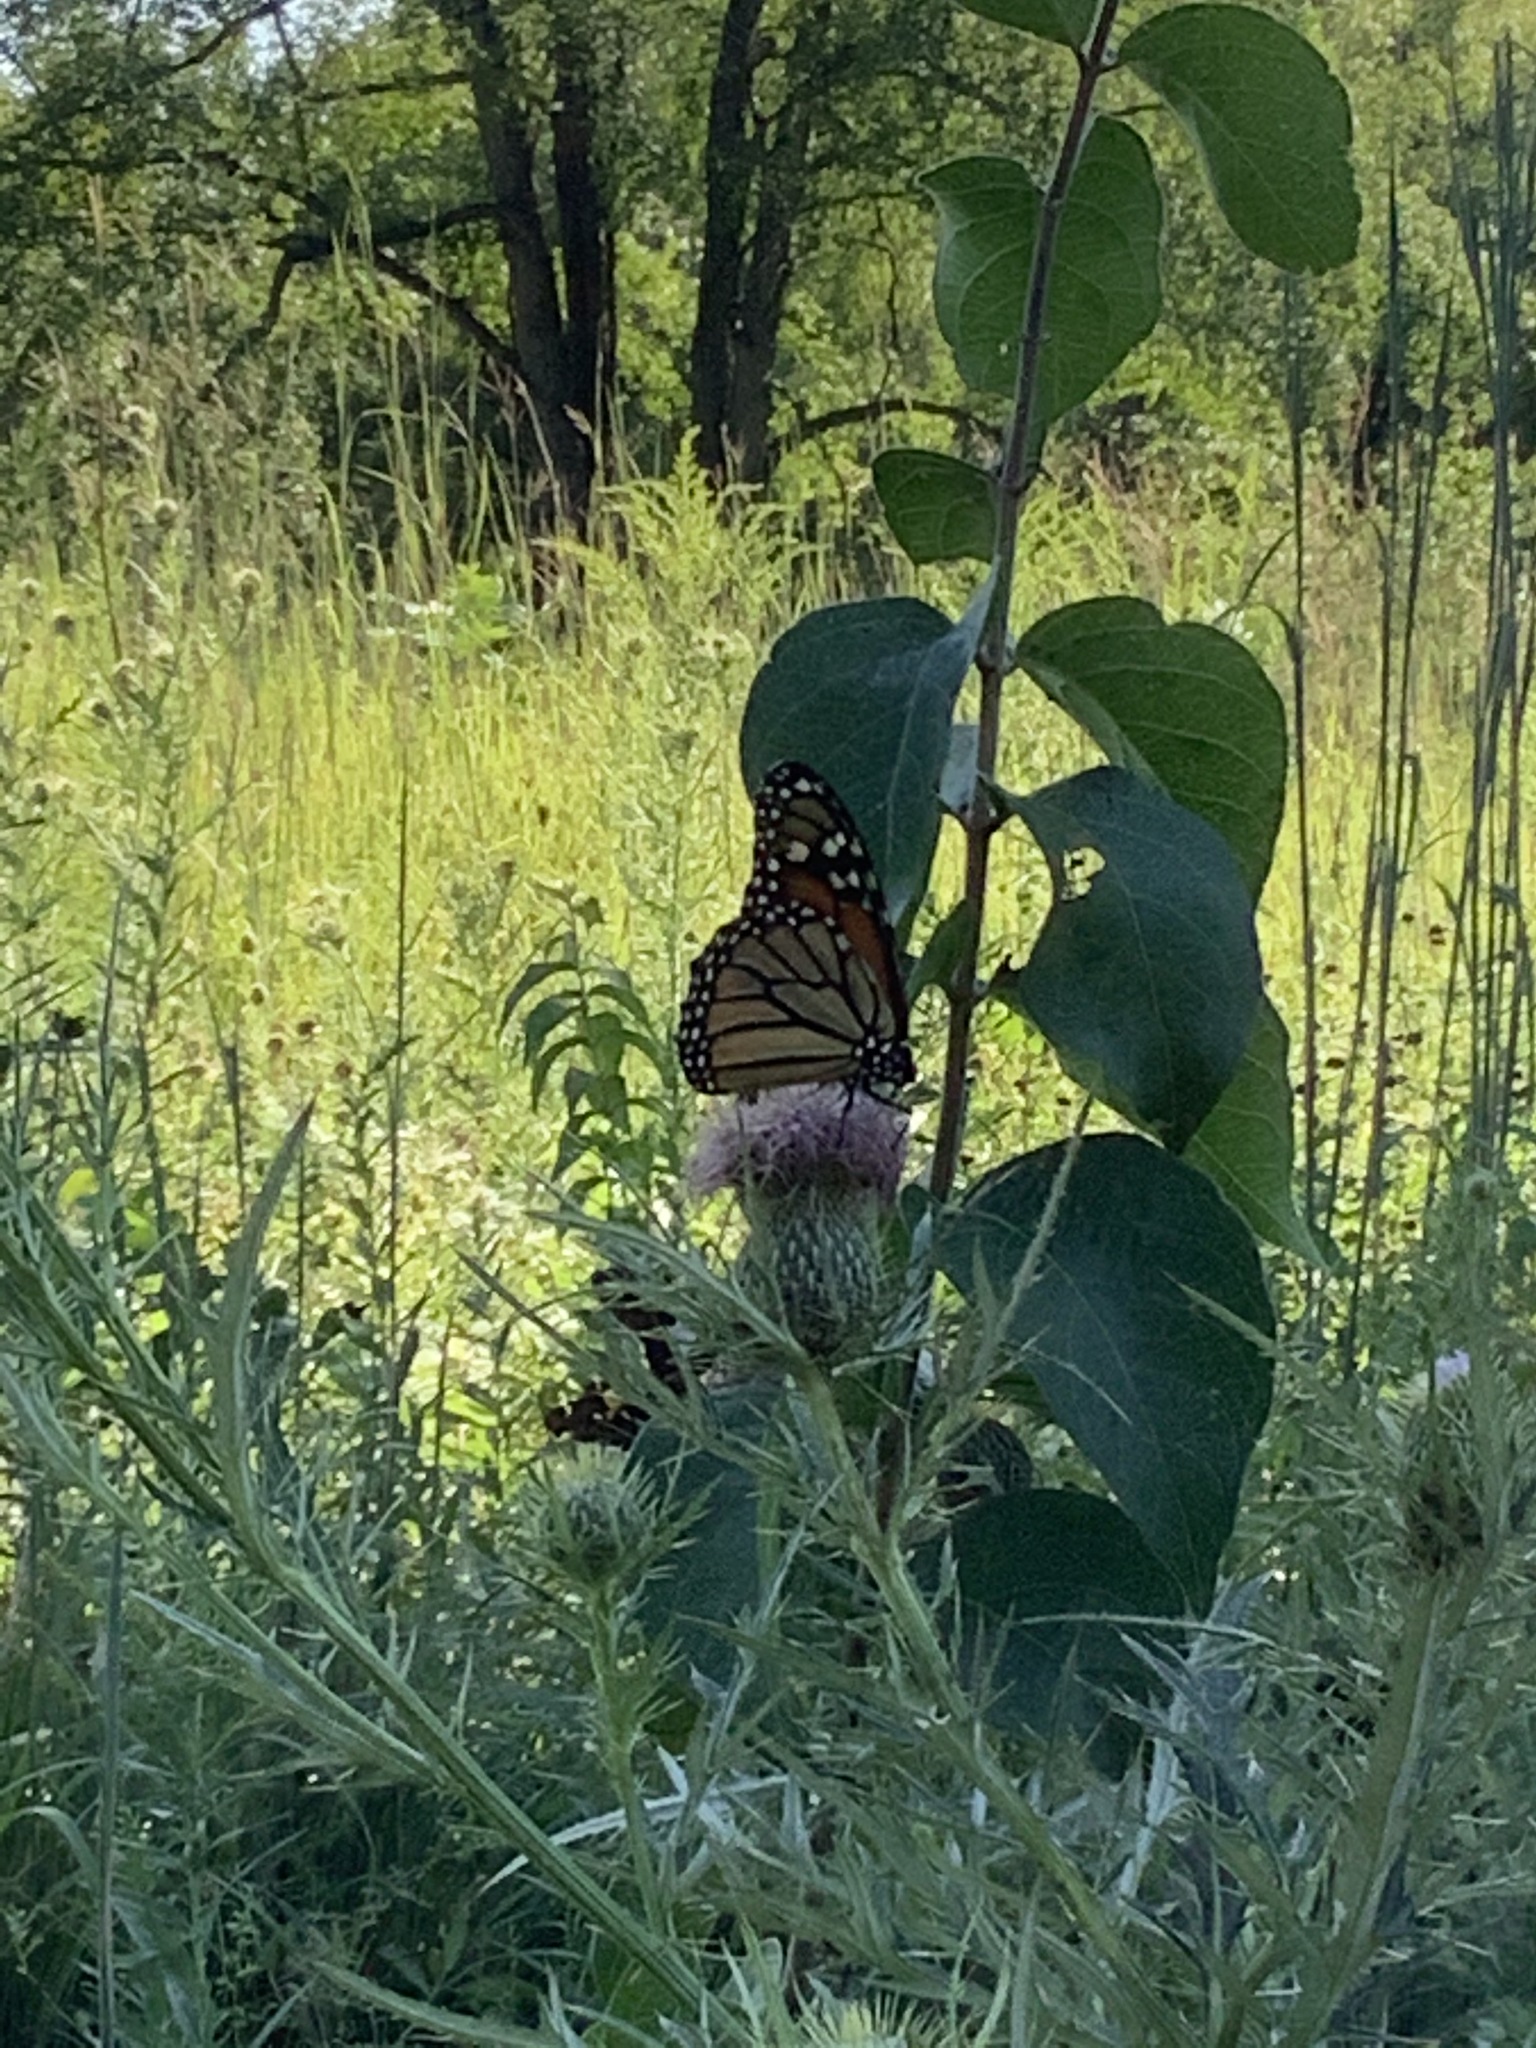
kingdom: Animalia
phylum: Arthropoda
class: Insecta
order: Lepidoptera
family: Nymphalidae
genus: Danaus
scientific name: Danaus plexippus
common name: Monarch
